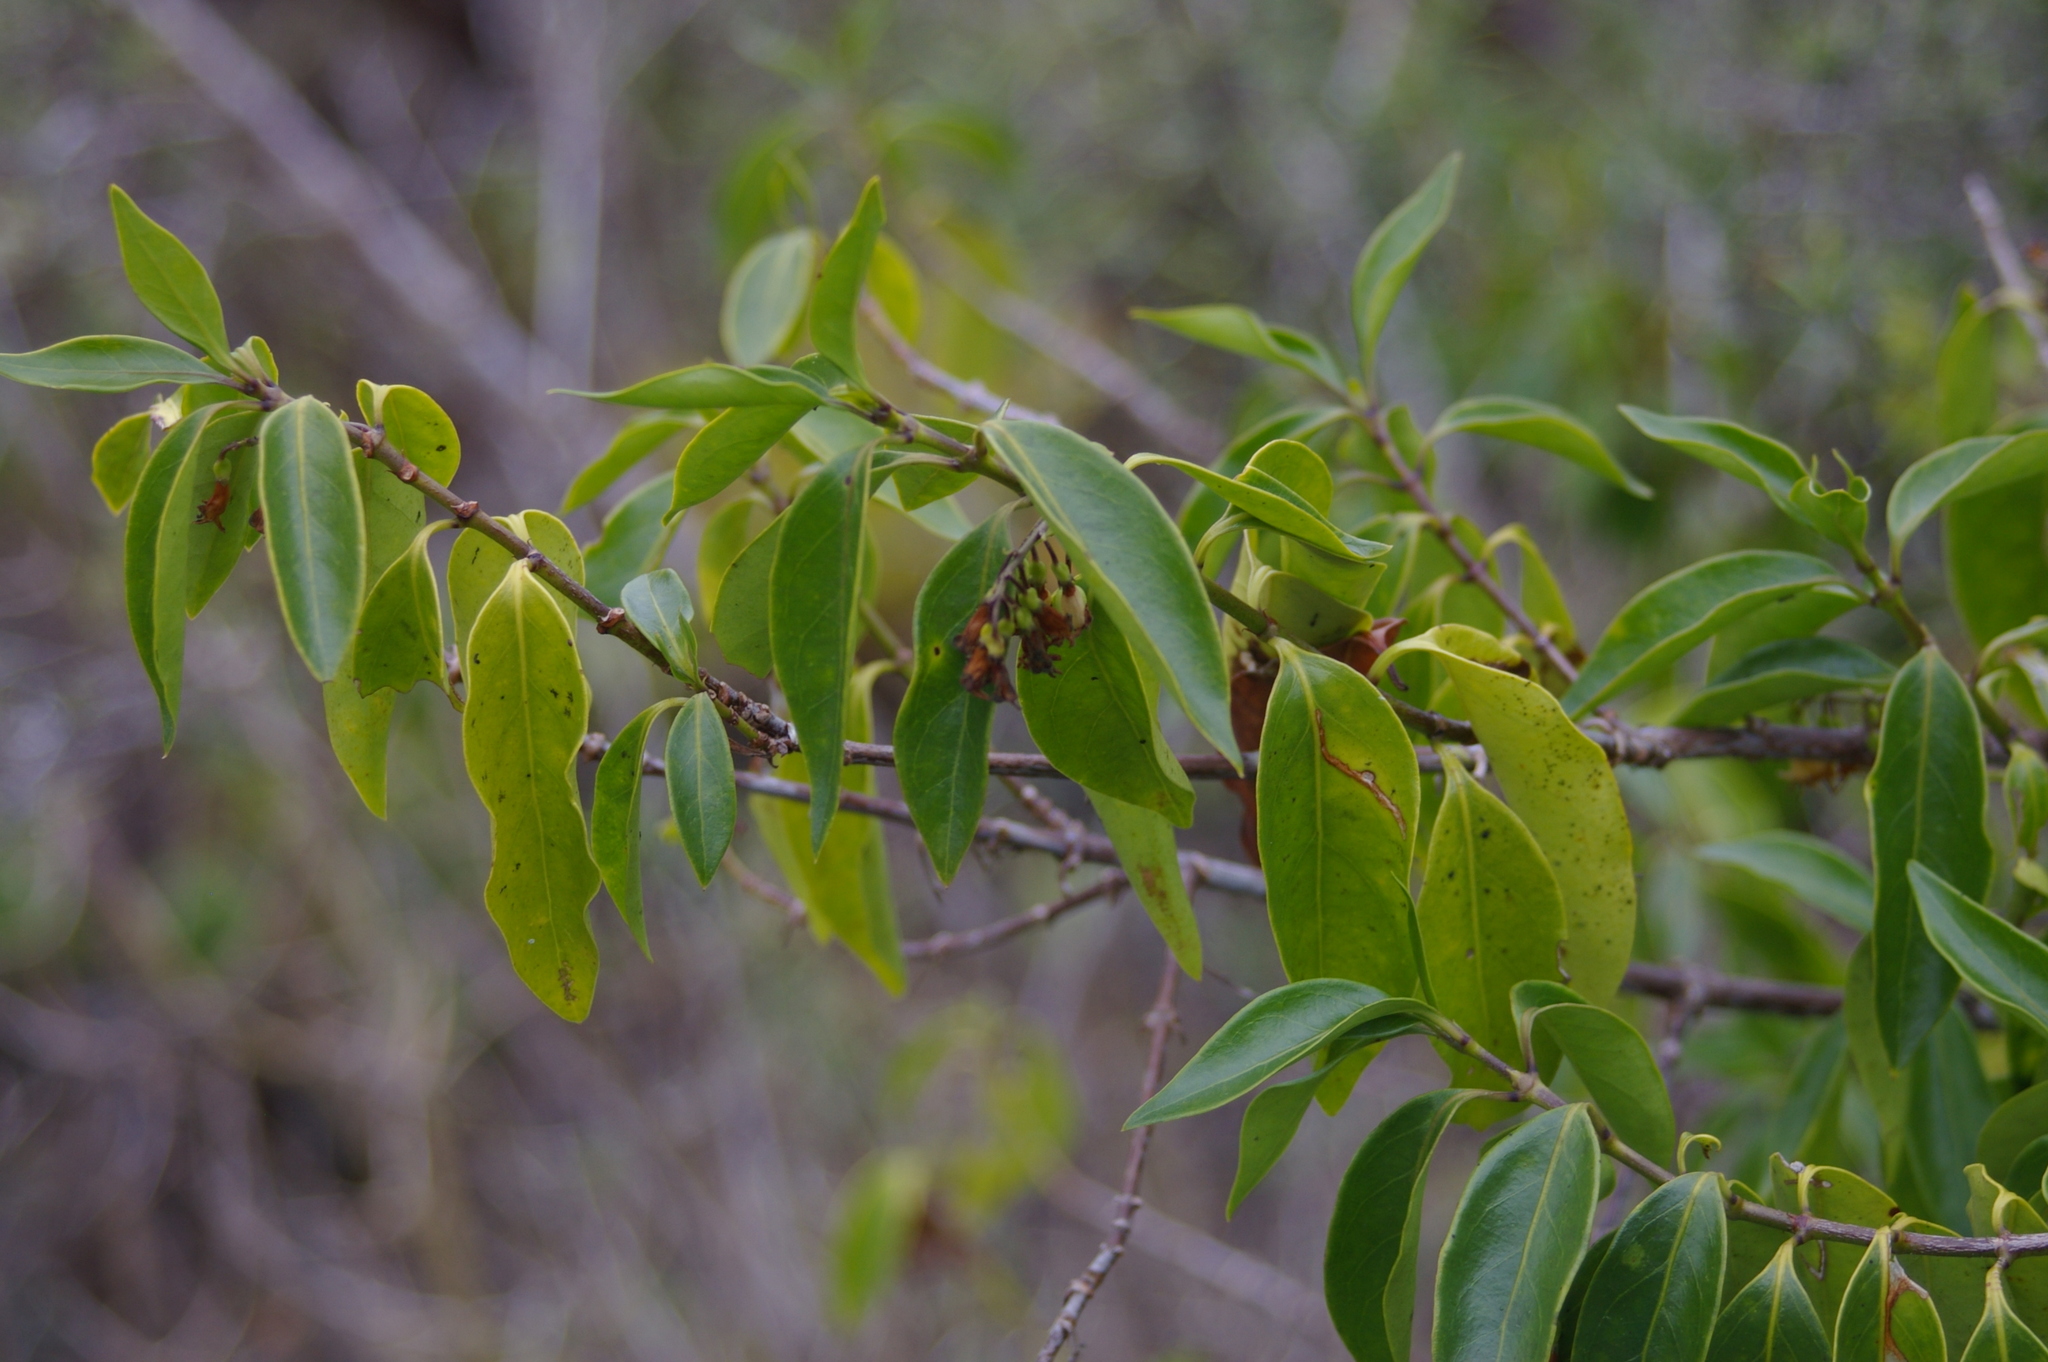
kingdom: Plantae
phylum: Tracheophyta
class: Magnoliopsida
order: Gentianales
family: Apocynaceae
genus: Vallesia
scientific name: Vallesia glabra
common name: Pearlberry
